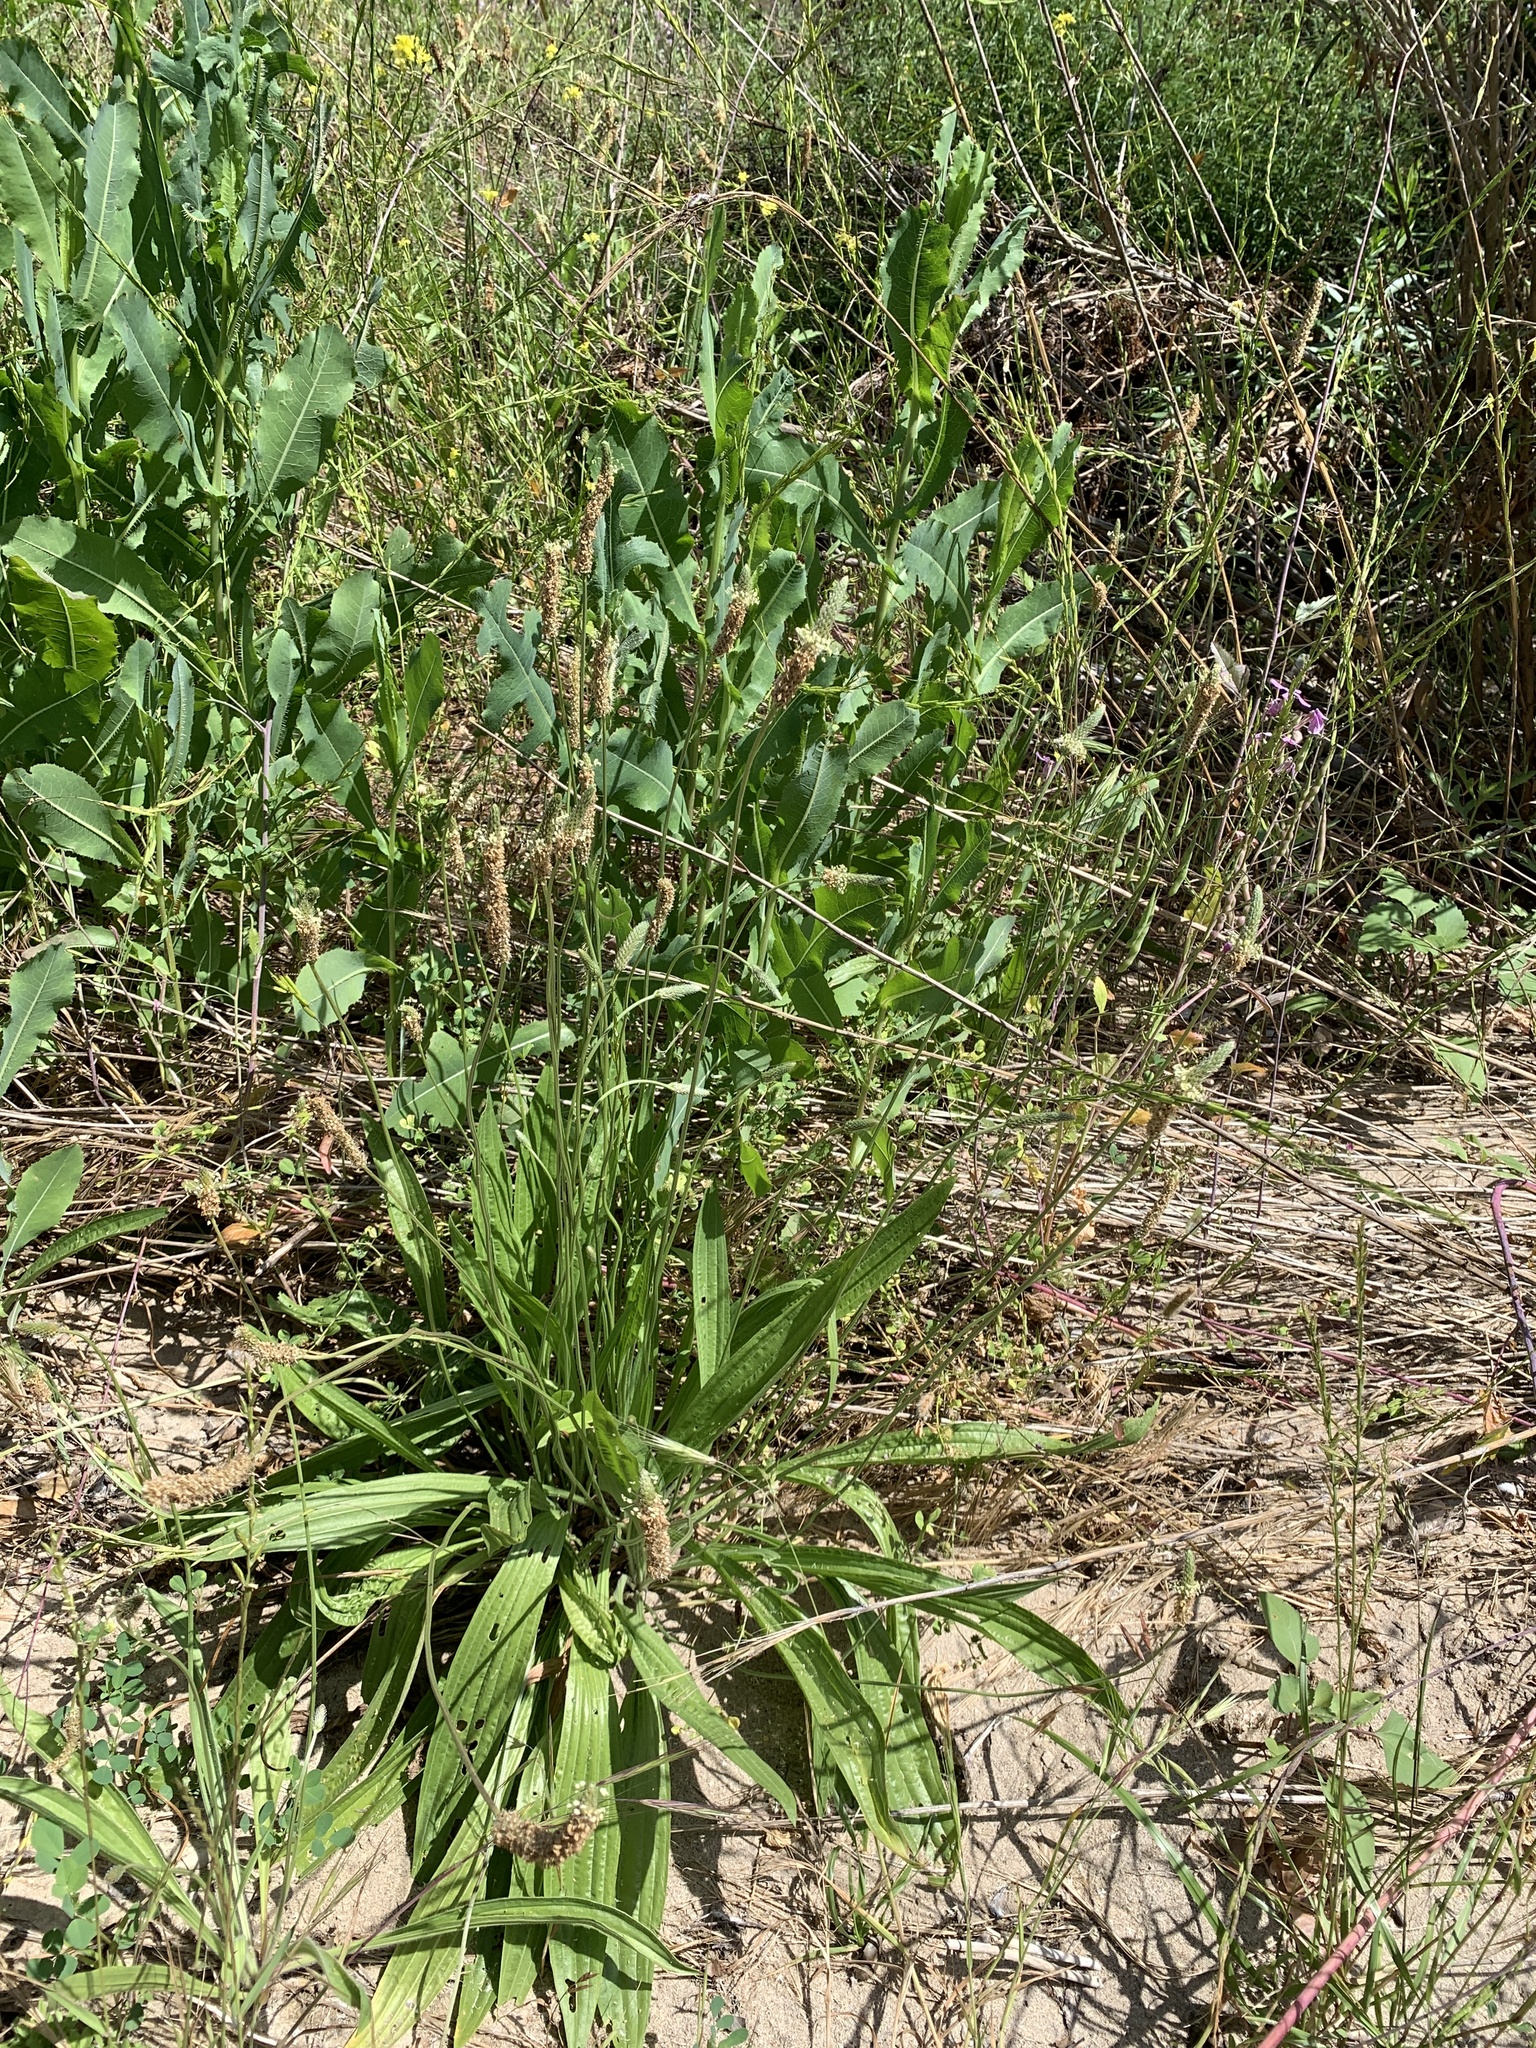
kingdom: Plantae
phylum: Tracheophyta
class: Magnoliopsida
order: Lamiales
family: Plantaginaceae
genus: Plantago
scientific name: Plantago lanceolata
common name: Ribwort plantain
